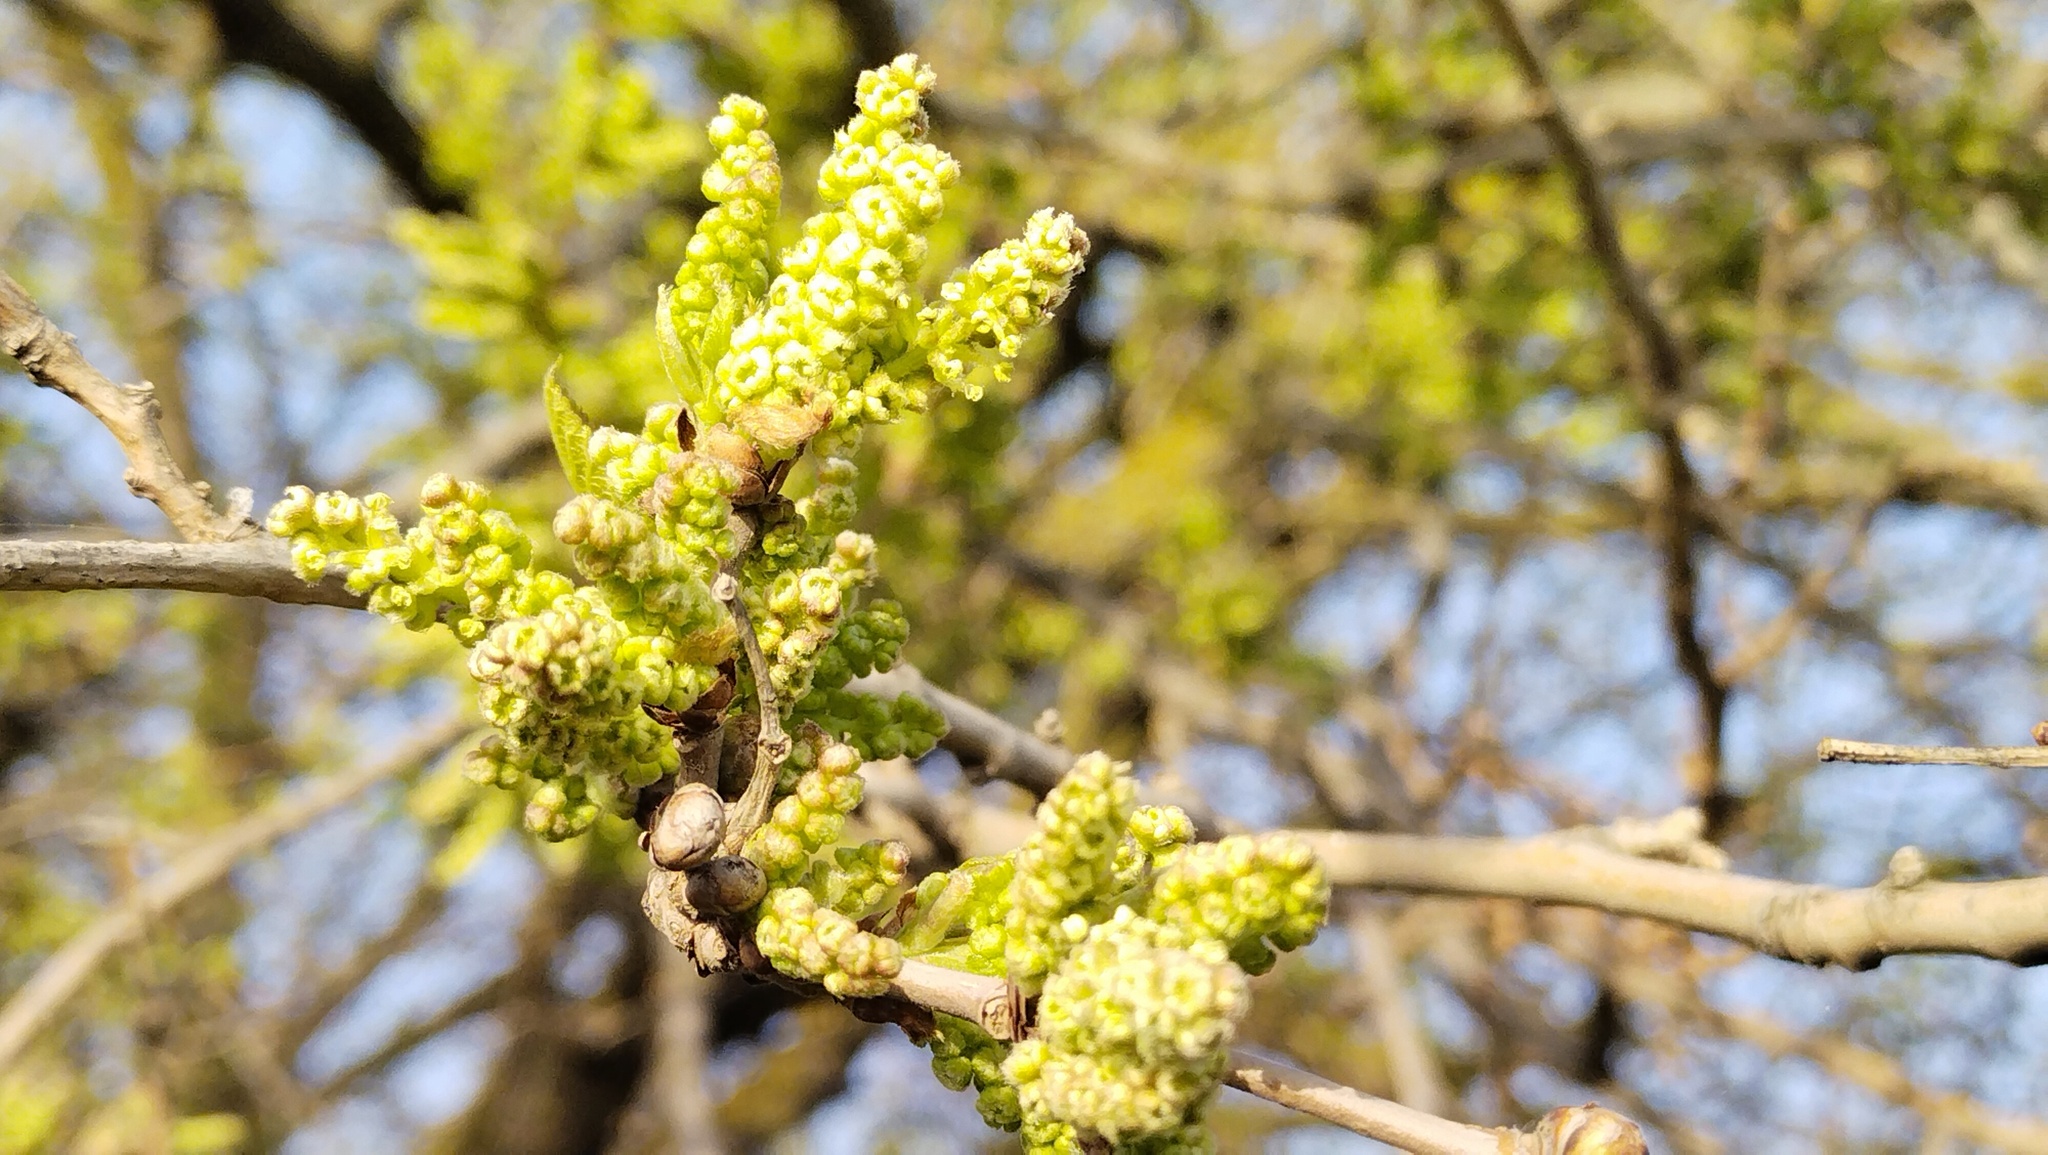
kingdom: Plantae
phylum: Tracheophyta
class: Magnoliopsida
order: Rosales
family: Moraceae
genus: Morus
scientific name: Morus alba
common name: White mulberry
